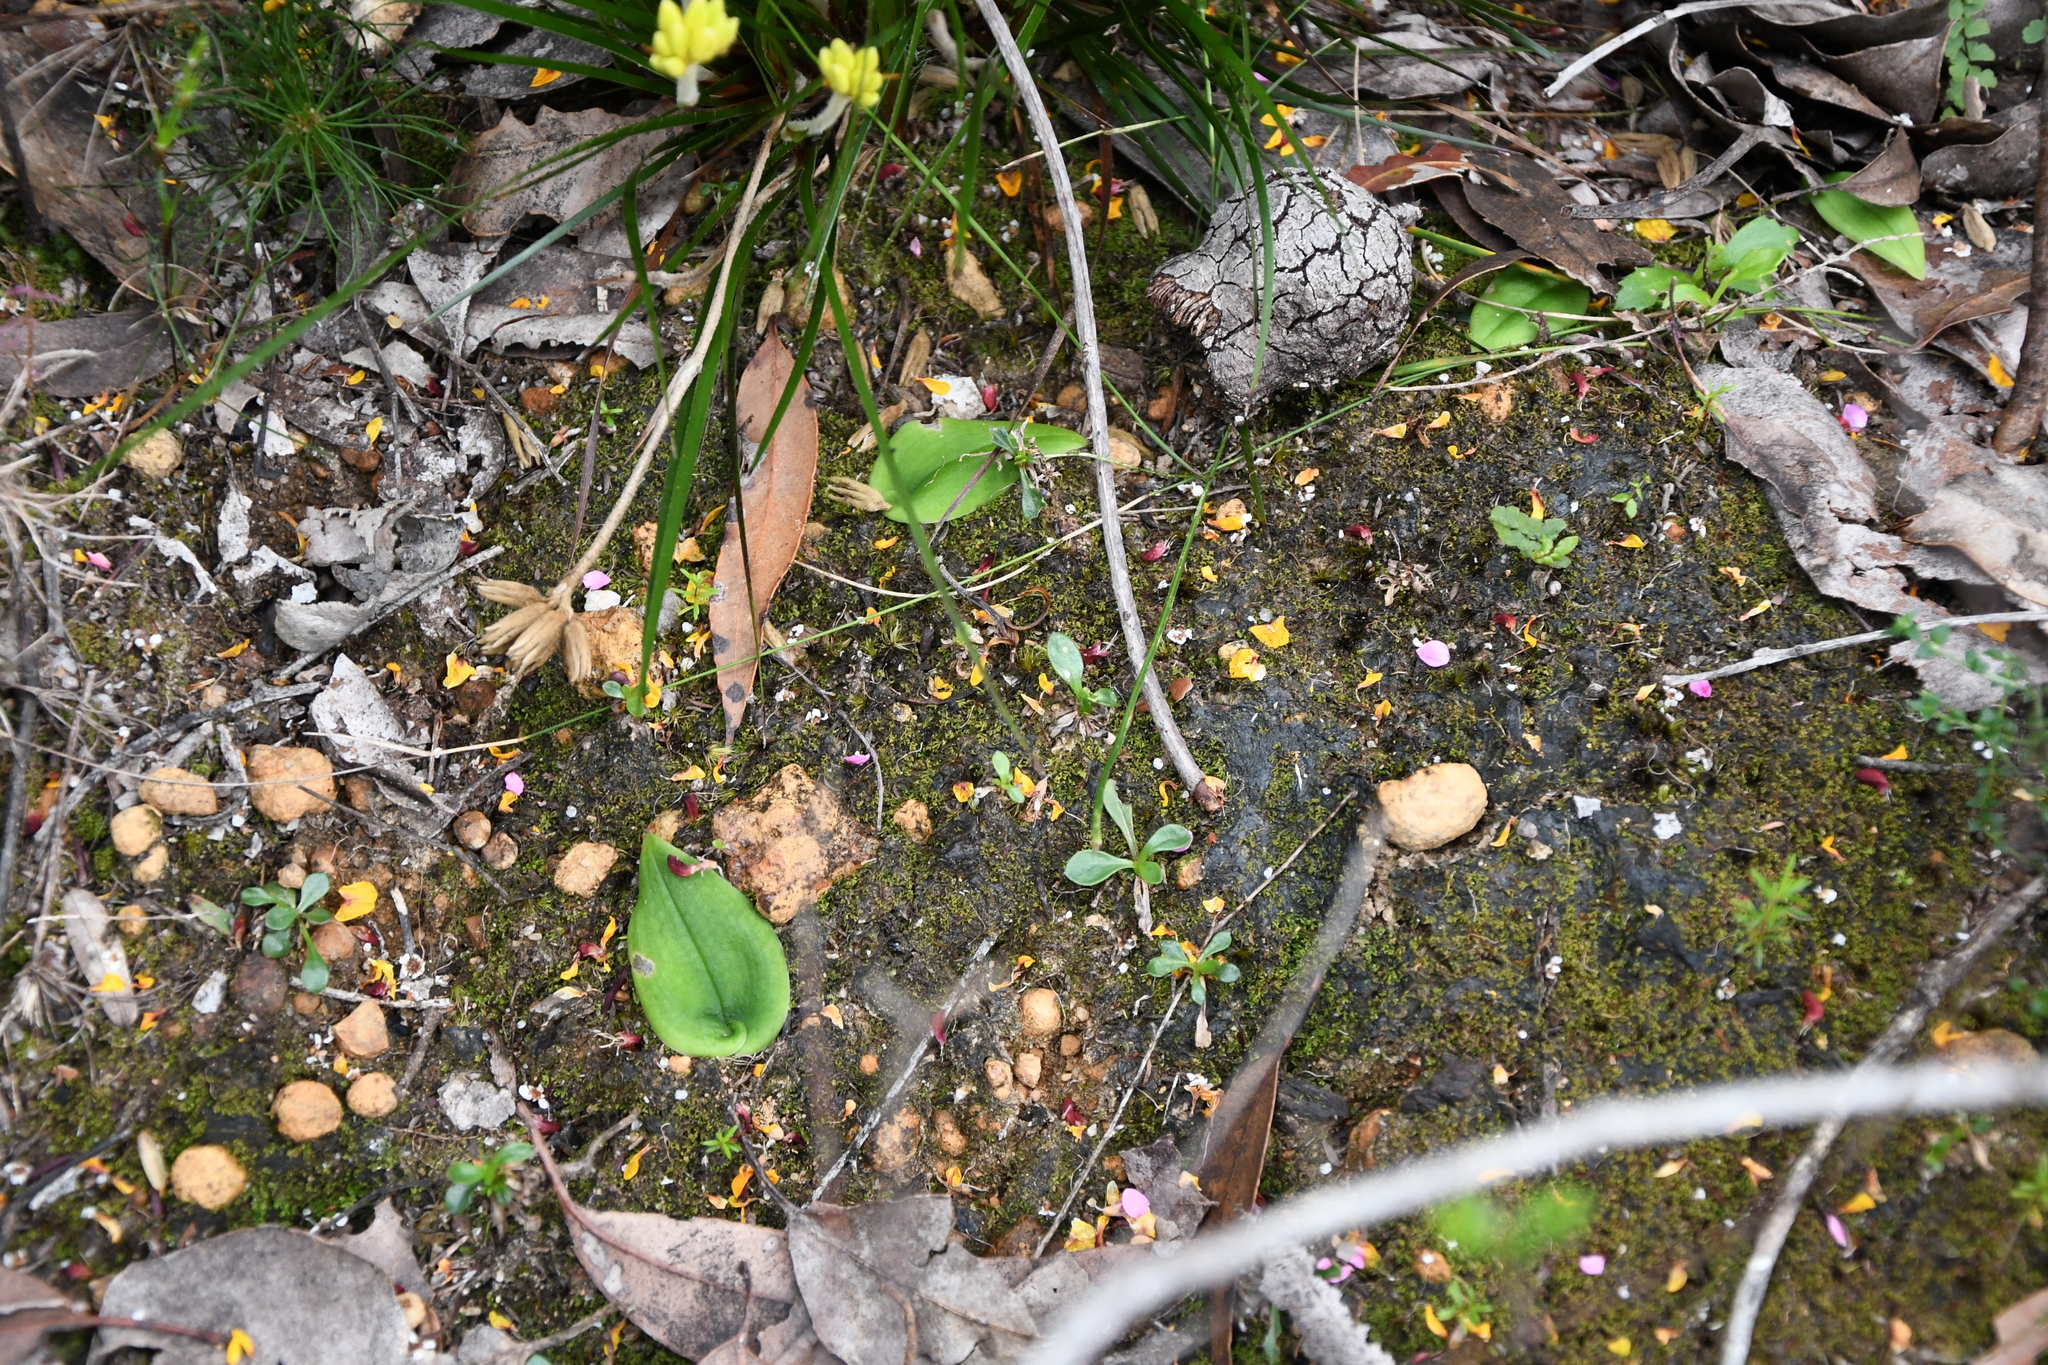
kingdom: Plantae
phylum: Tracheophyta
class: Liliopsida
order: Asparagales
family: Orchidaceae
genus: Pyrorchis
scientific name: Pyrorchis forrestii
